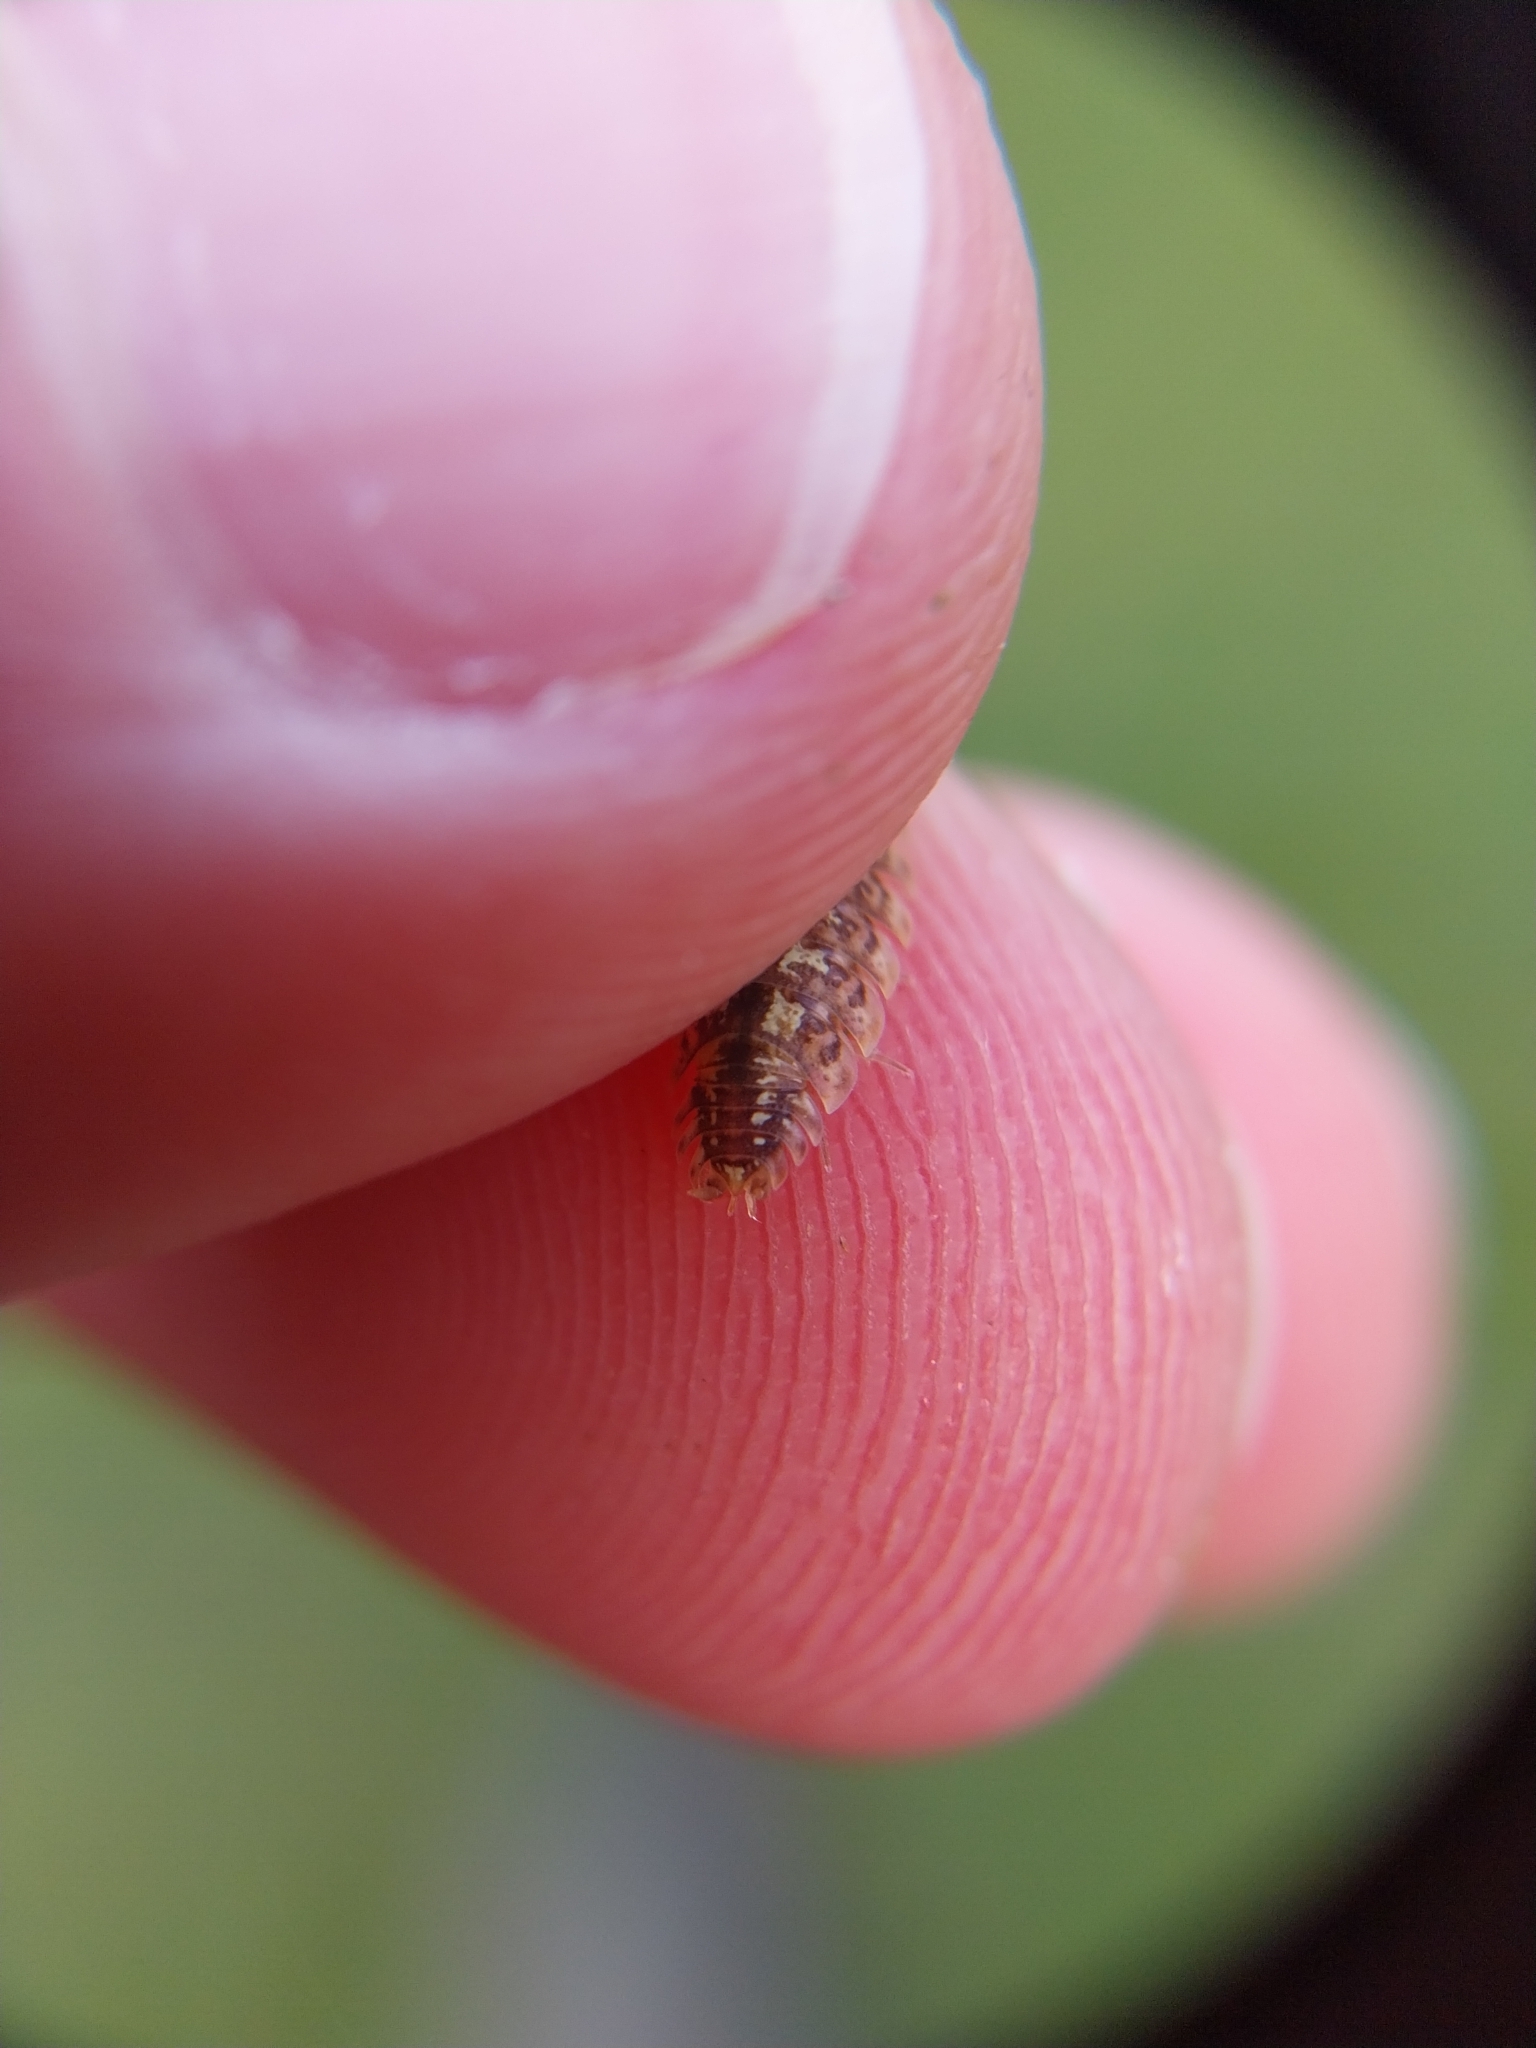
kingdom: Animalia
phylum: Arthropoda
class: Malacostraca
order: Isopoda
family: Porcellionidae
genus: Porcellio
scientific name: Porcellio spinicornis
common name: Painted woodlouse
